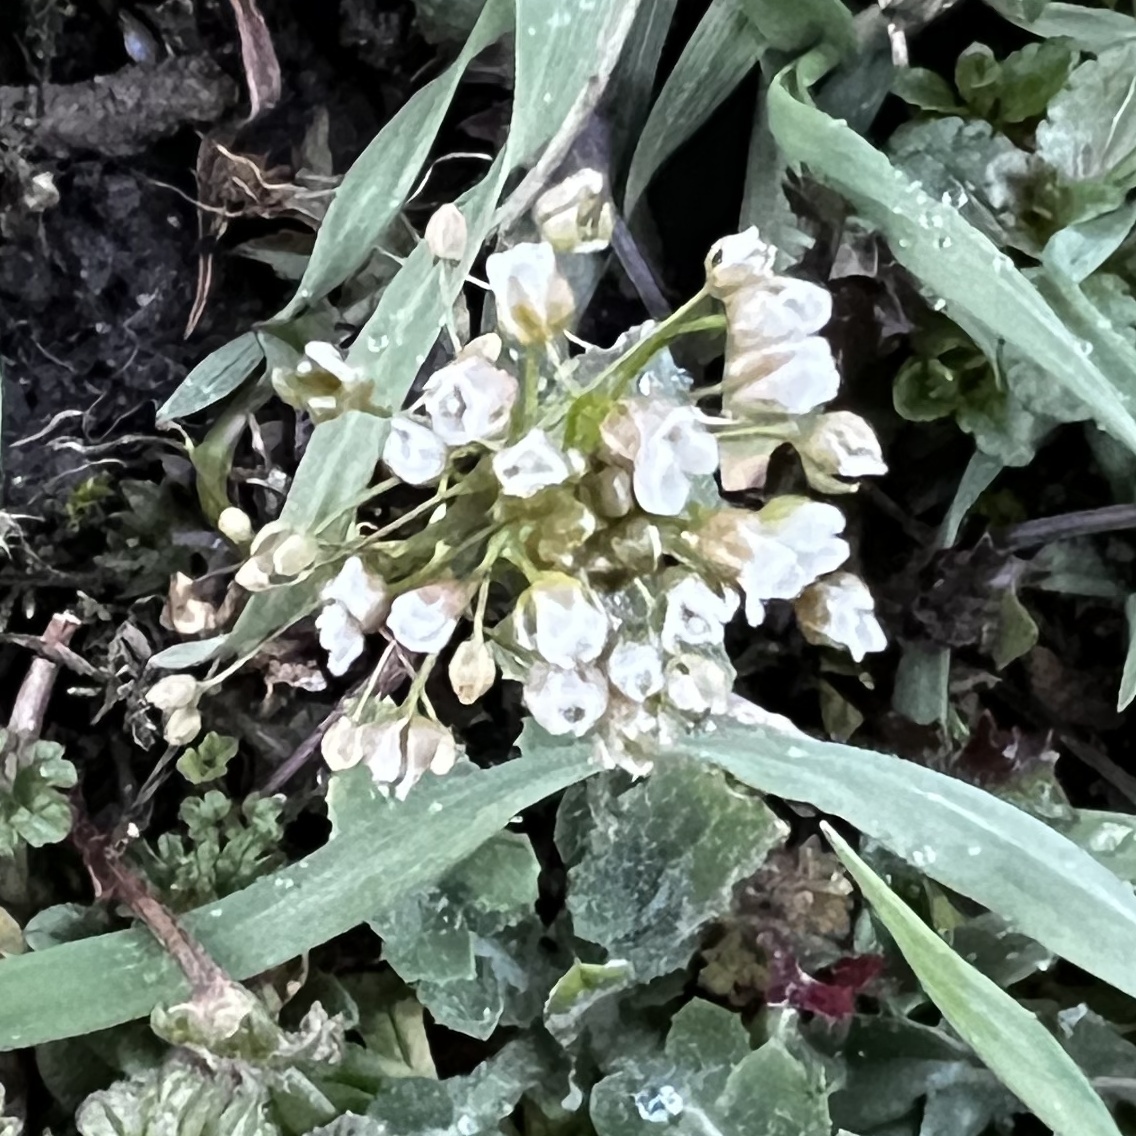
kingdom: Plantae
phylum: Tracheophyta
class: Magnoliopsida
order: Brassicales
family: Brassicaceae
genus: Capsella
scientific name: Capsella bursa-pastoris
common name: Shepherd's purse
